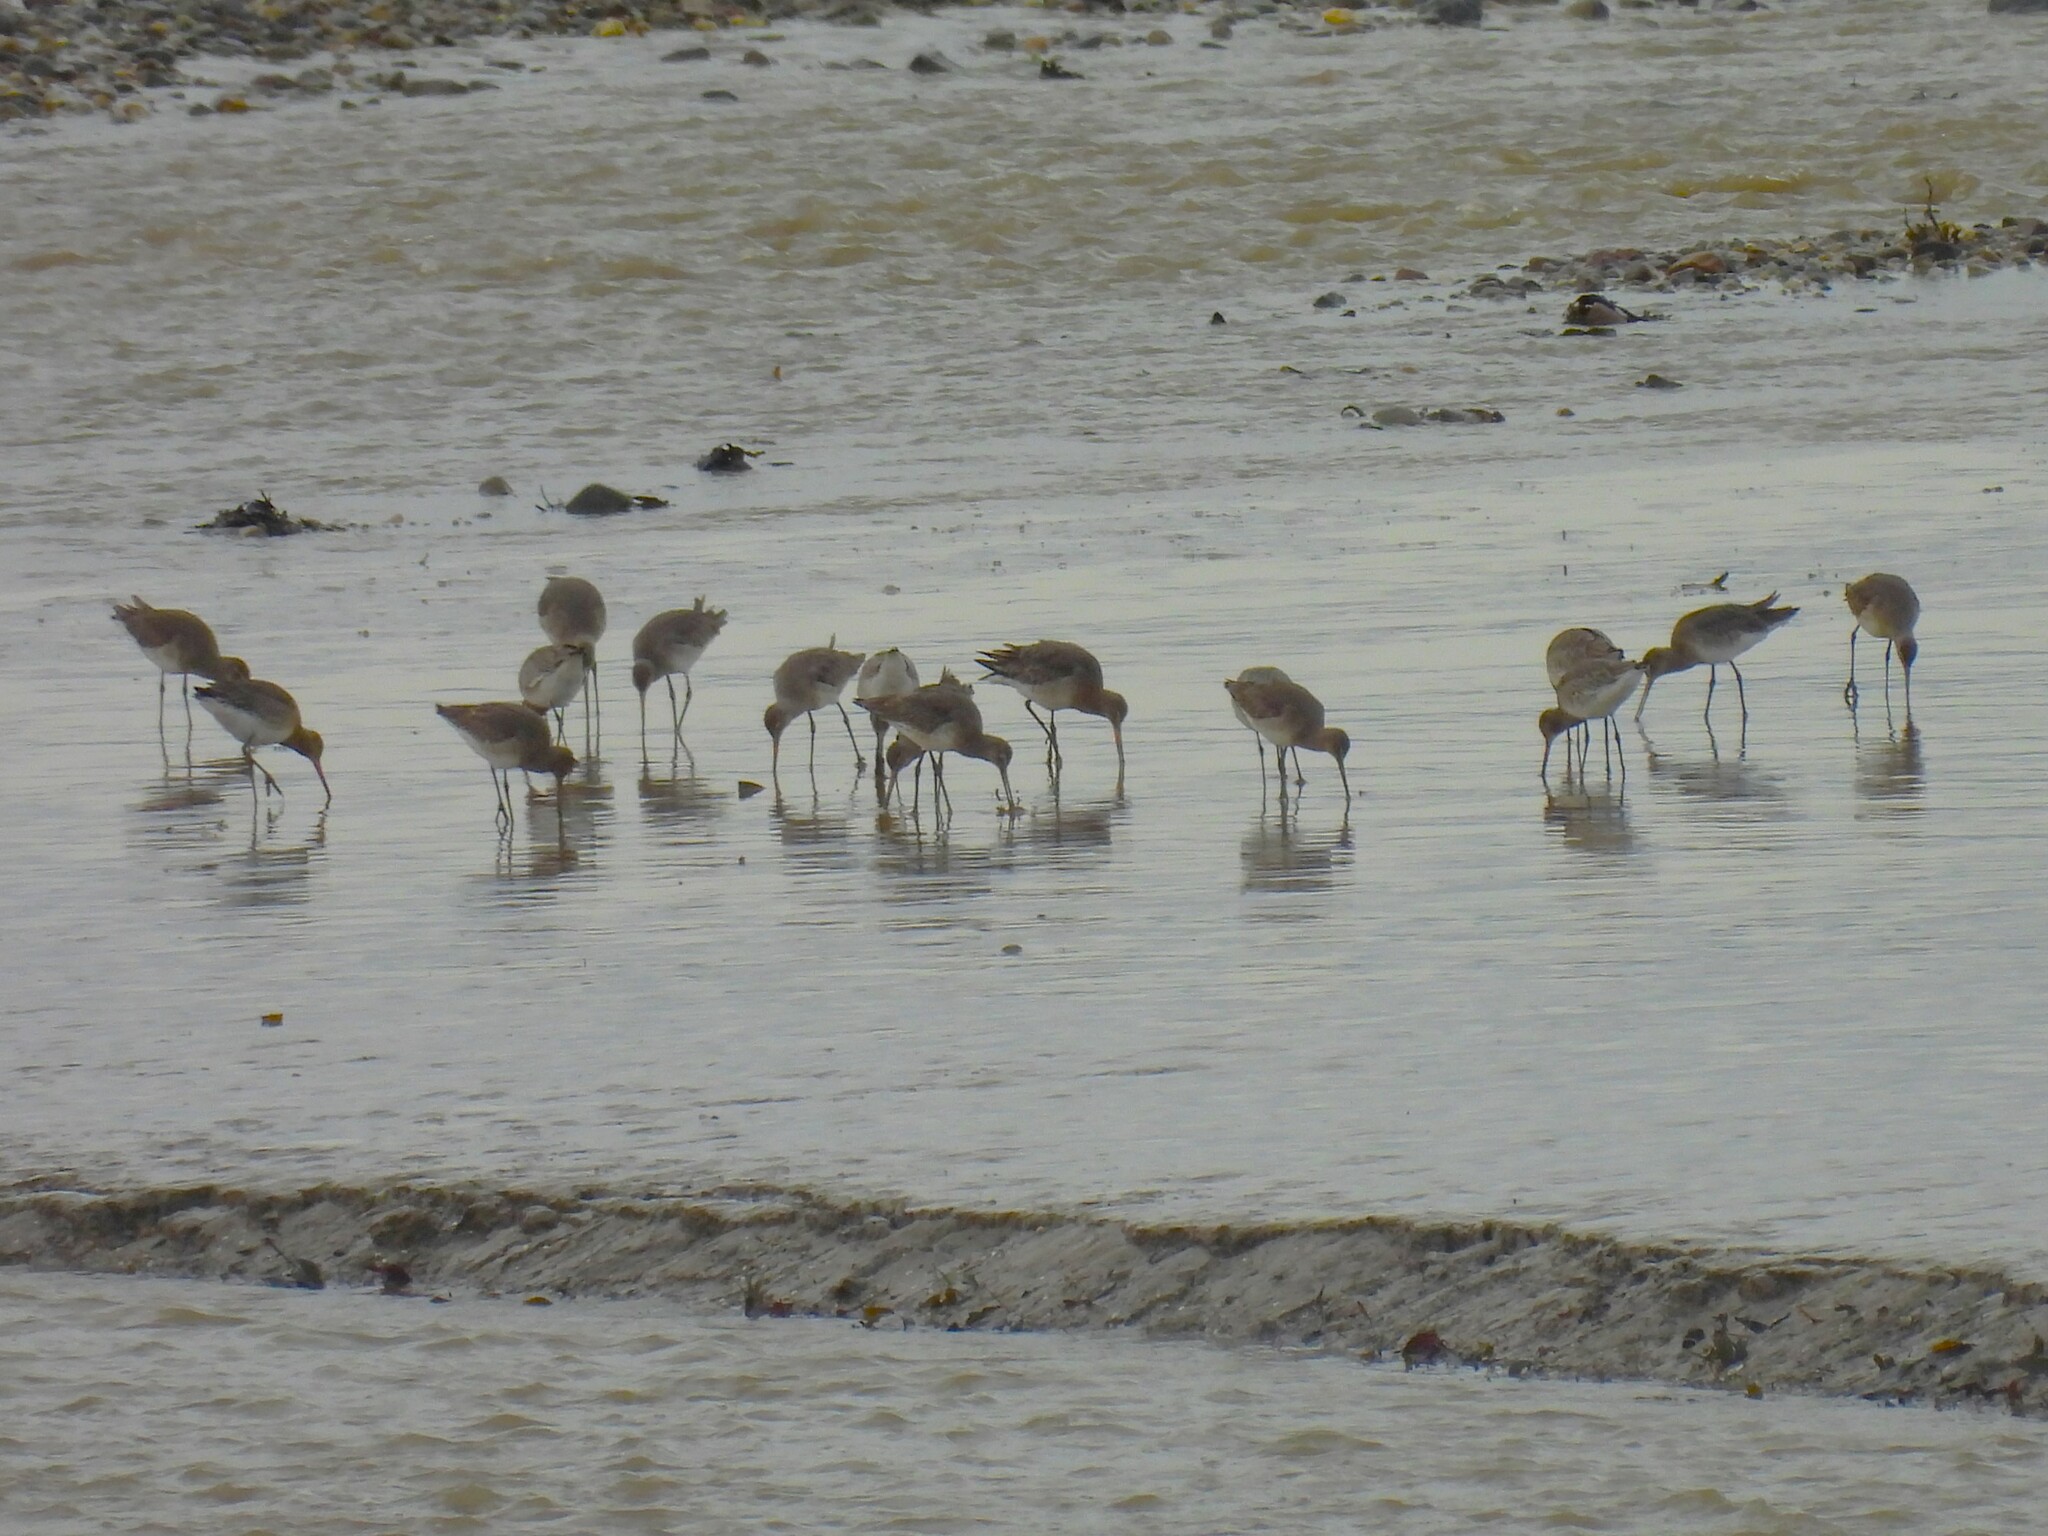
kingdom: Animalia
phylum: Chordata
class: Aves
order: Charadriiformes
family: Scolopacidae
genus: Limosa
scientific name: Limosa limosa
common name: Black-tailed godwit
